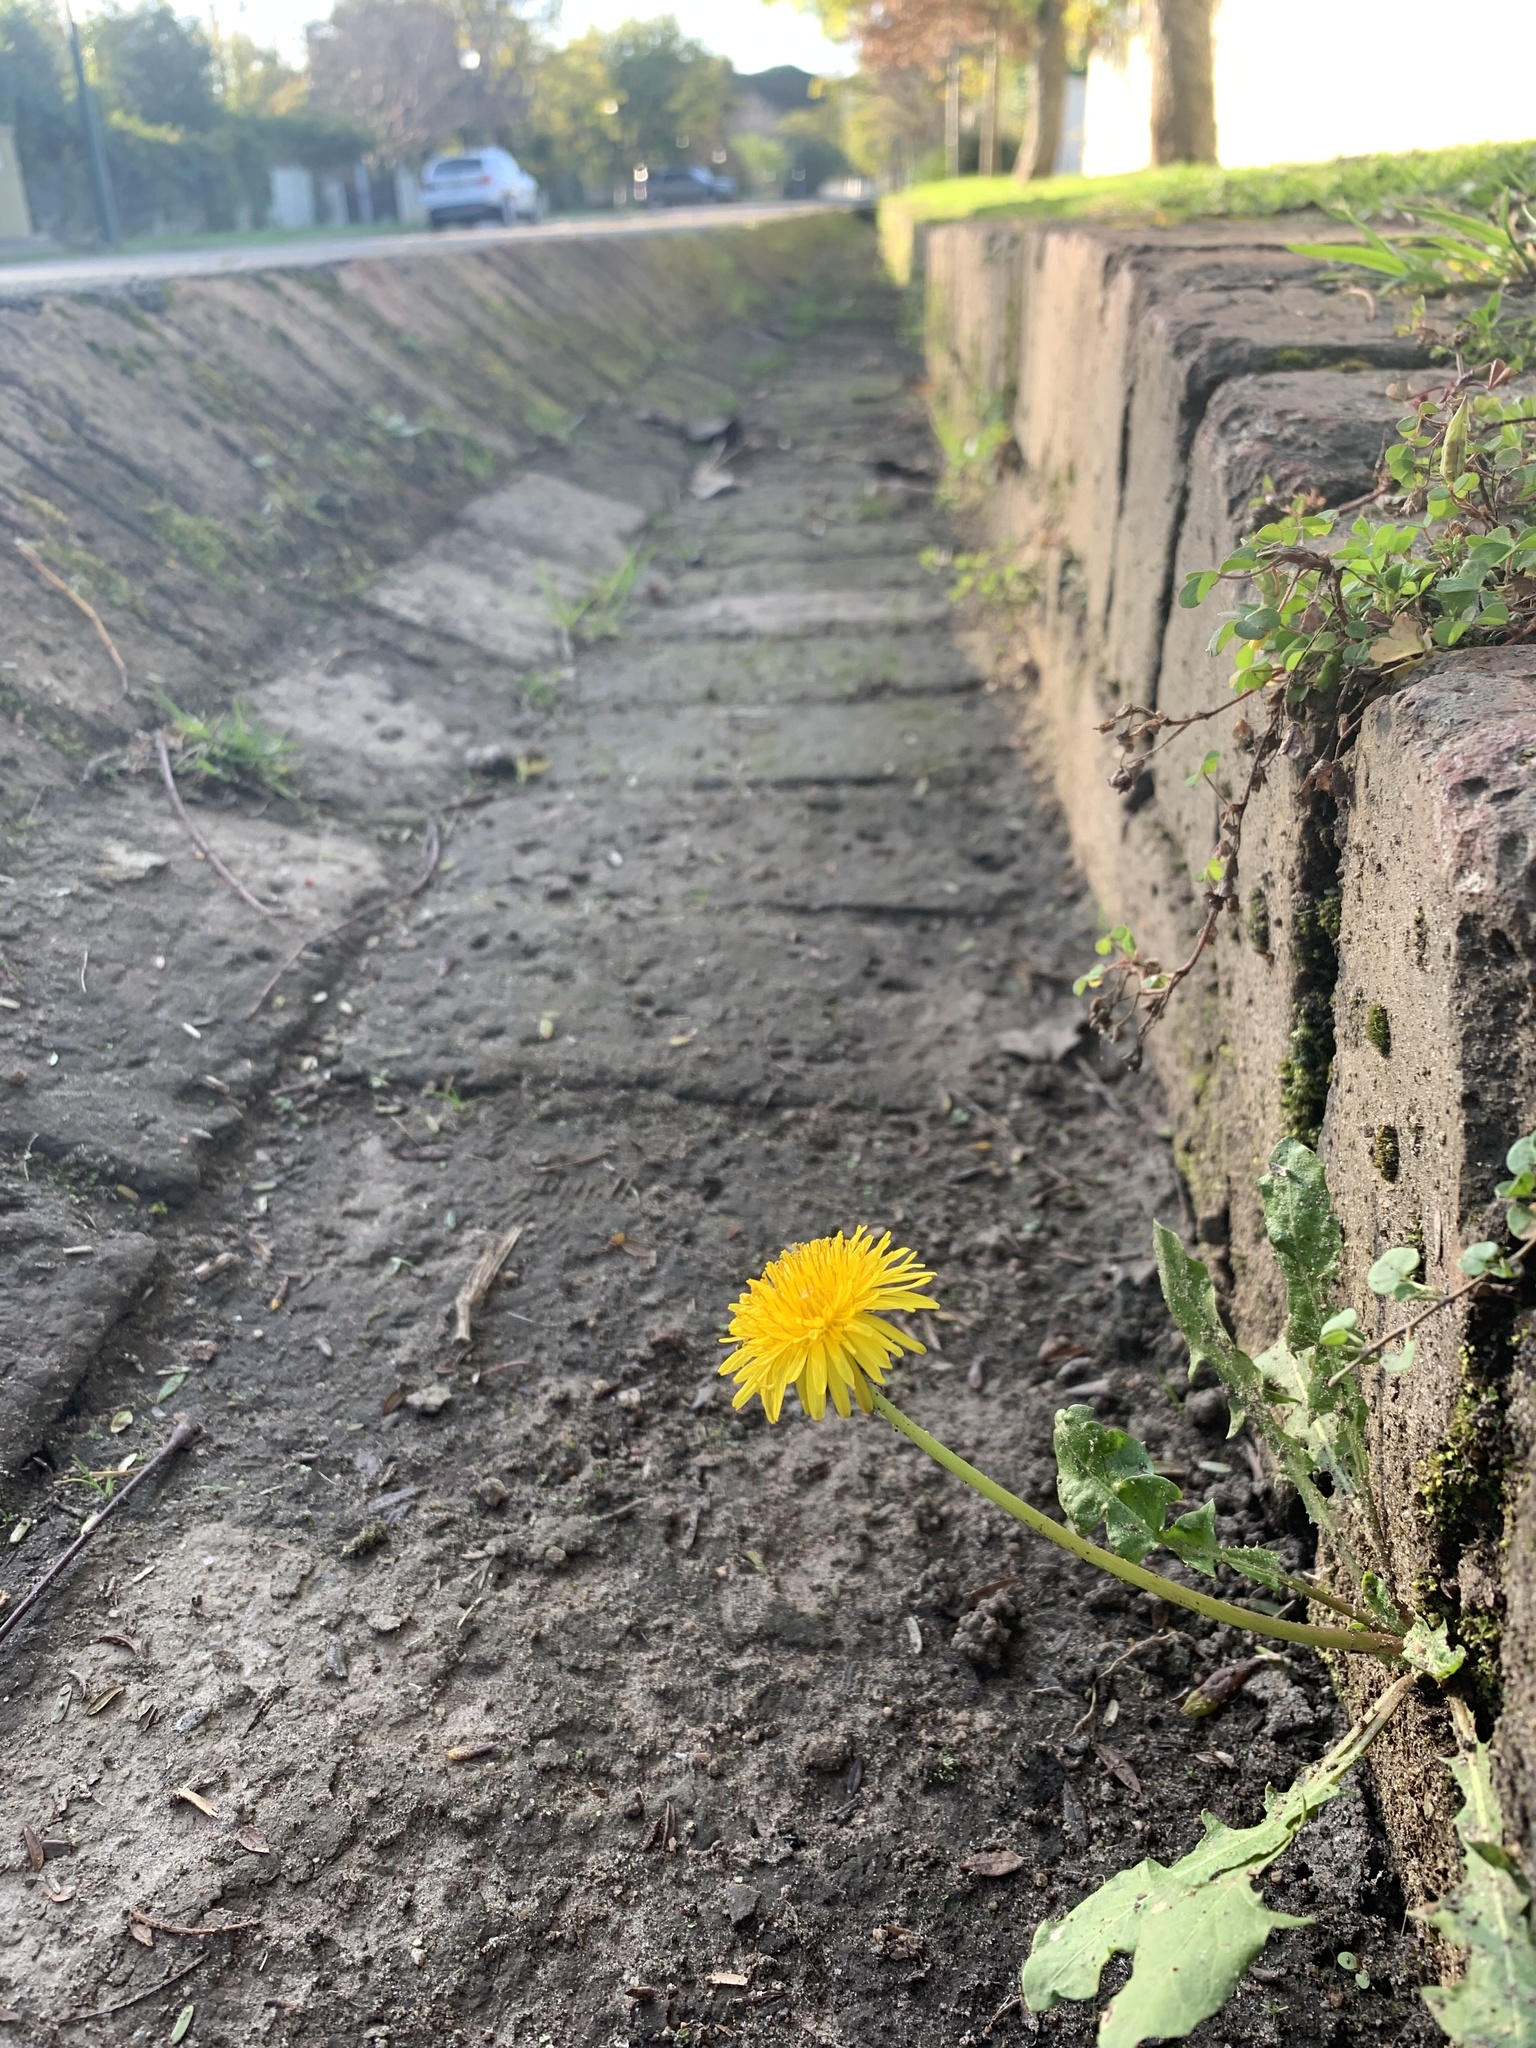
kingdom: Plantae
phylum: Tracheophyta
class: Magnoliopsida
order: Asterales
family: Asteraceae
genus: Taraxacum
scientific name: Taraxacum officinale
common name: Common dandelion
